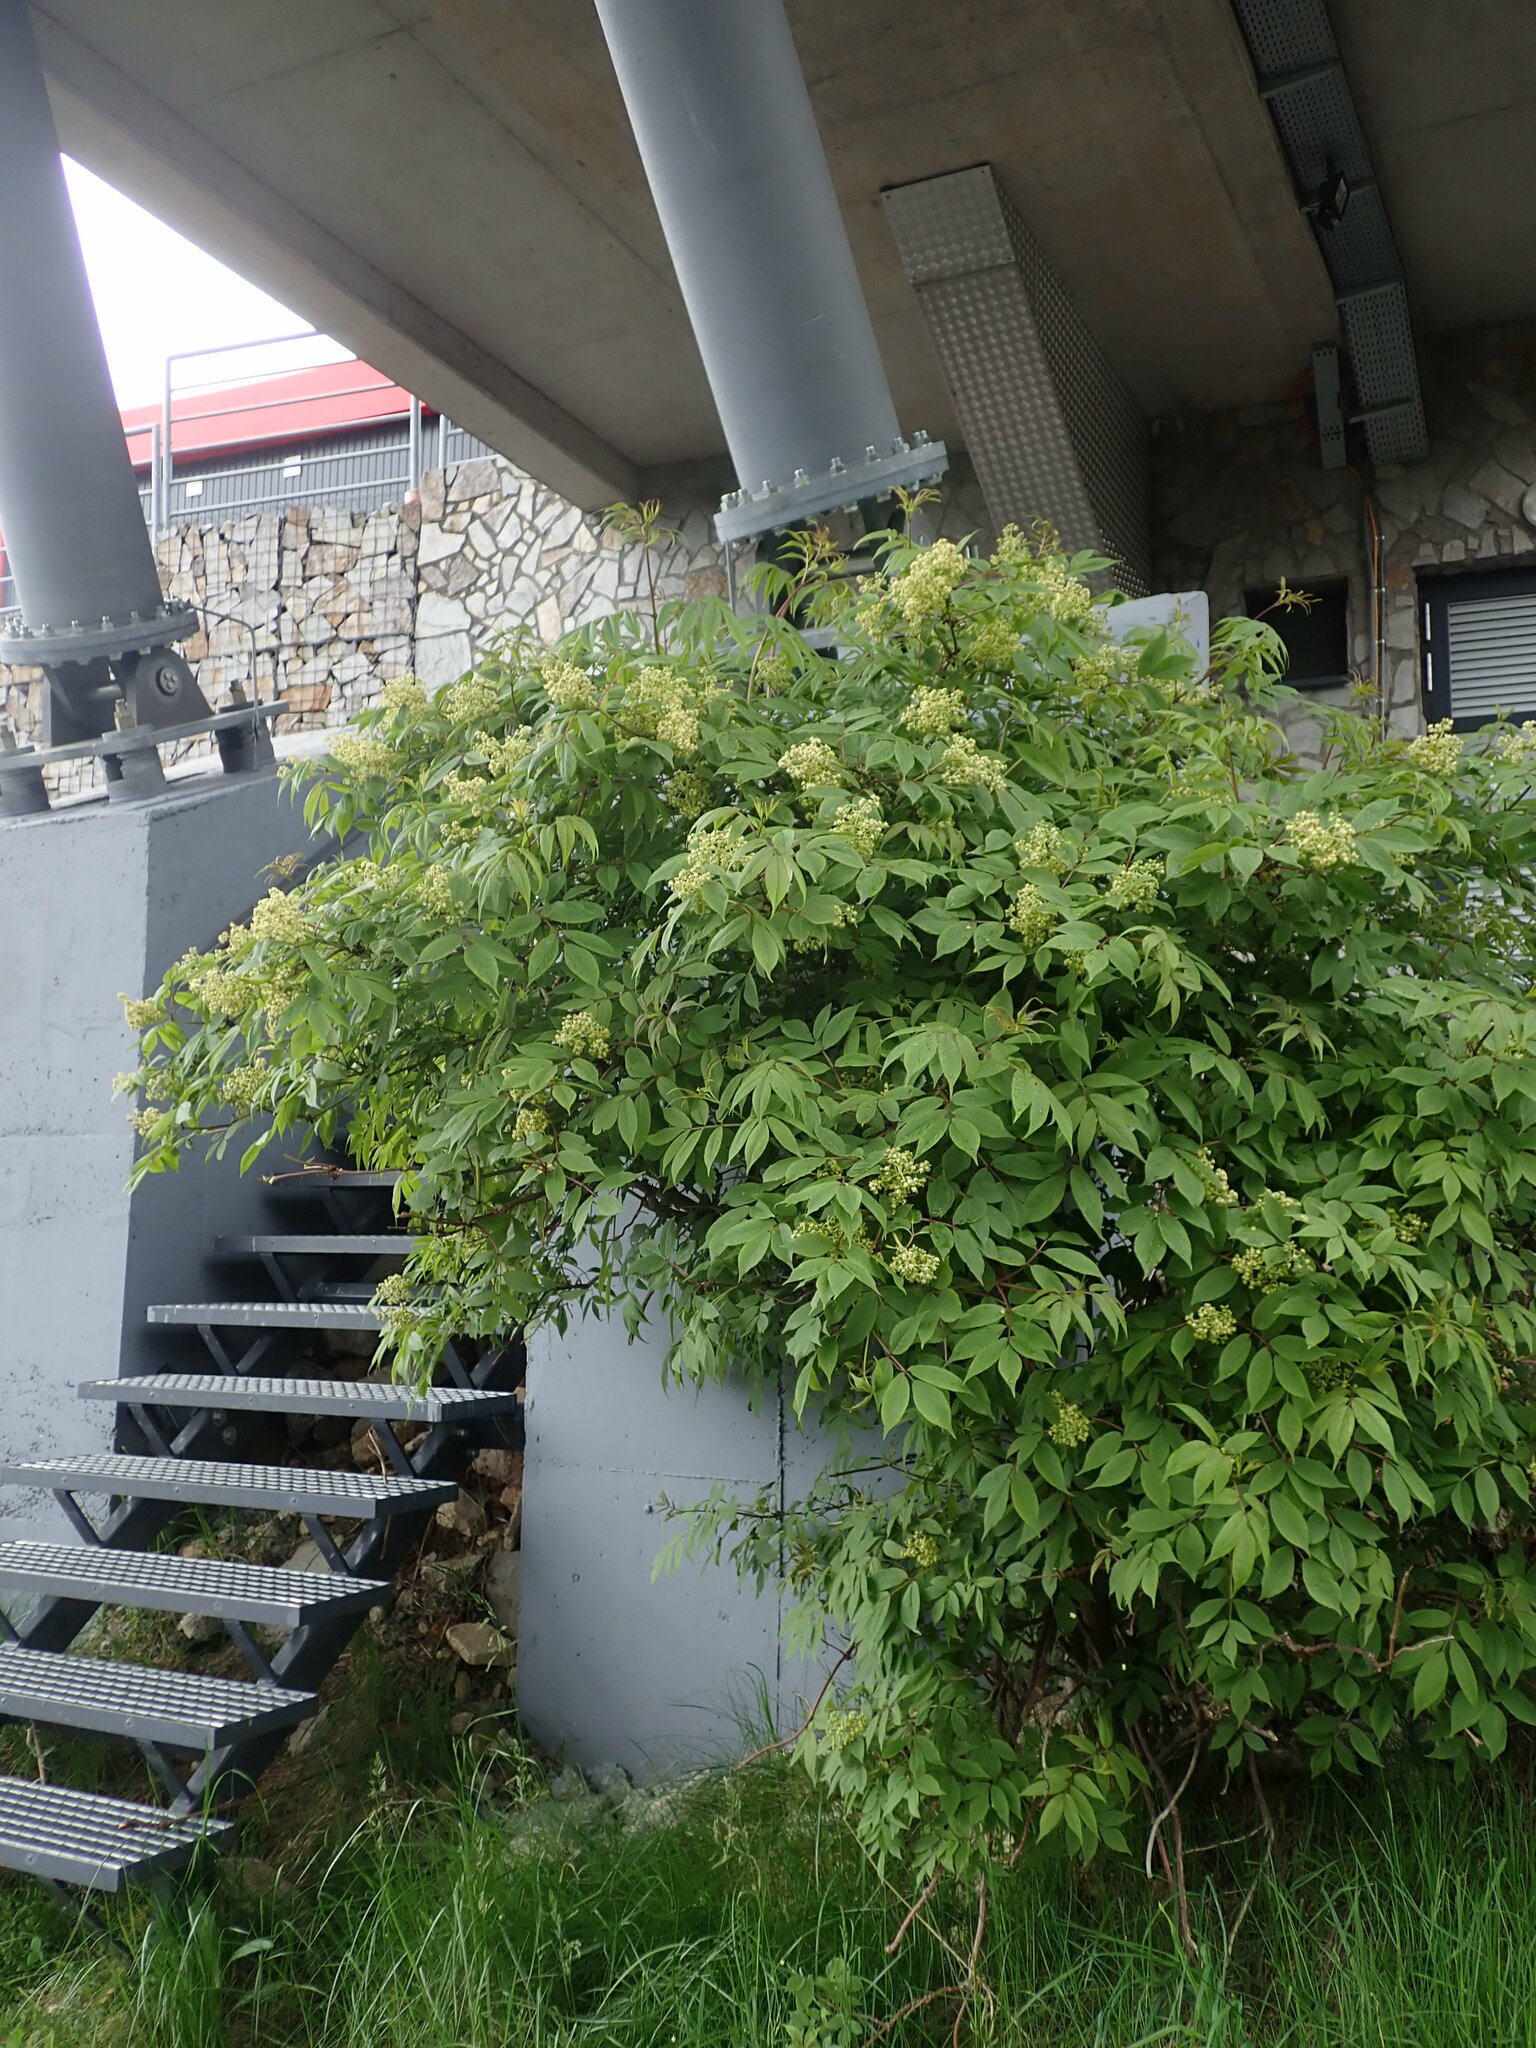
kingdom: Plantae
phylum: Tracheophyta
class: Magnoliopsida
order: Dipsacales
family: Viburnaceae
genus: Sambucus
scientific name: Sambucus racemosa
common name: Red-berried elder
